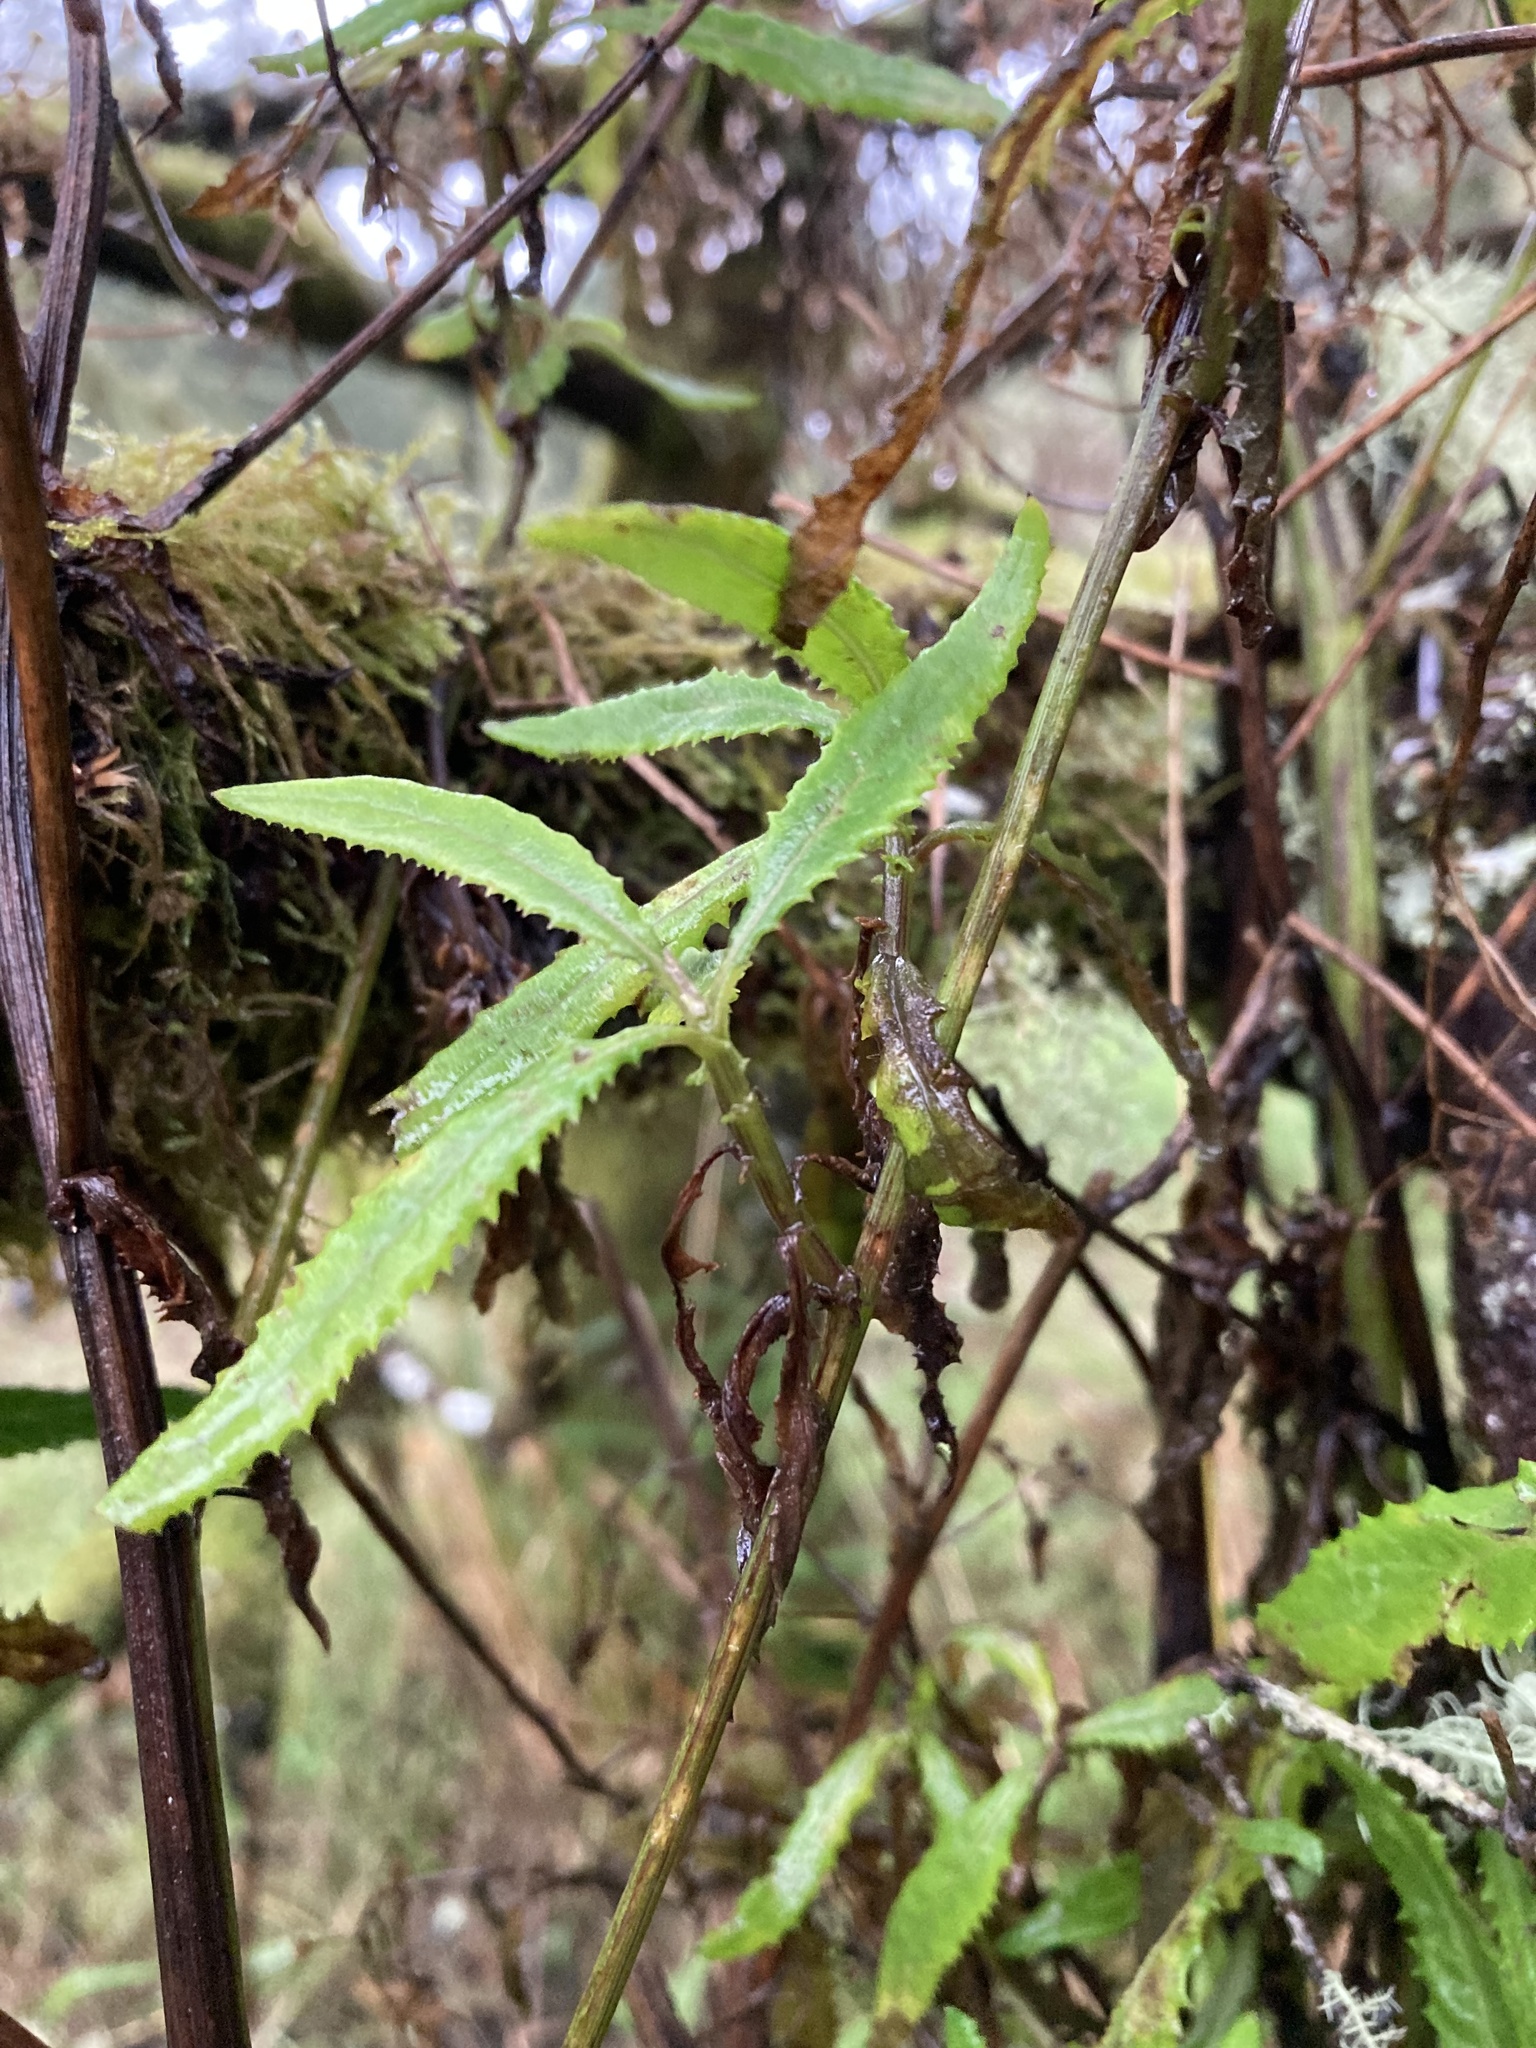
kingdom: Plantae
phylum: Tracheophyta
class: Magnoliopsida
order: Asterales
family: Asteraceae
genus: Senecio
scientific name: Senecio minimus
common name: Toothed fireweed
